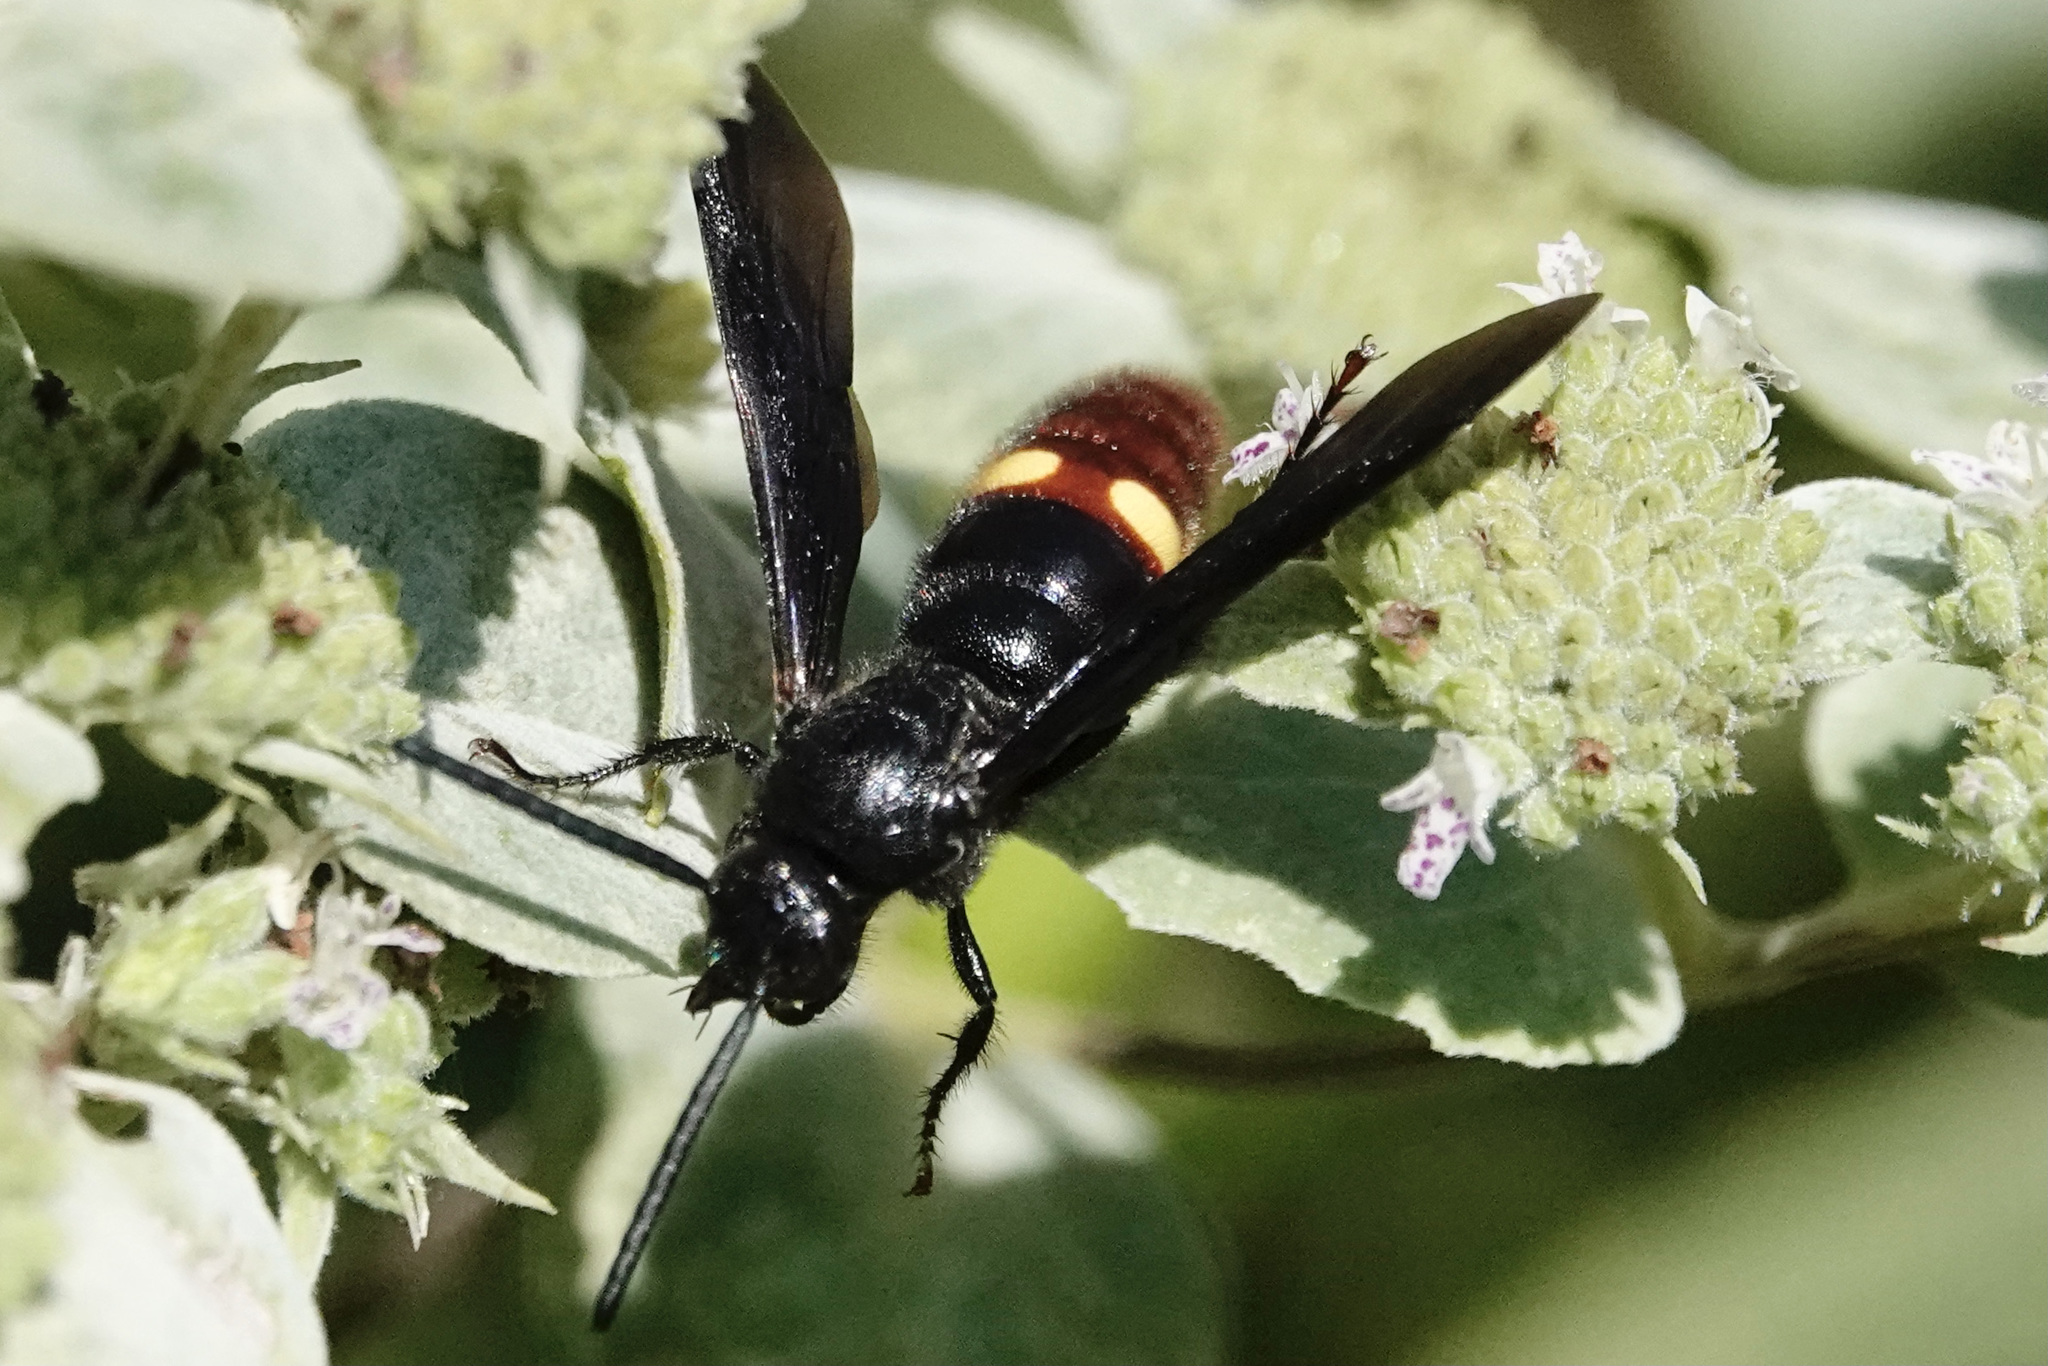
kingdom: Animalia
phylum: Arthropoda
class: Insecta
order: Hymenoptera
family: Scoliidae
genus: Scolia
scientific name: Scolia dubia
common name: Blue-winged scoliid wasp
